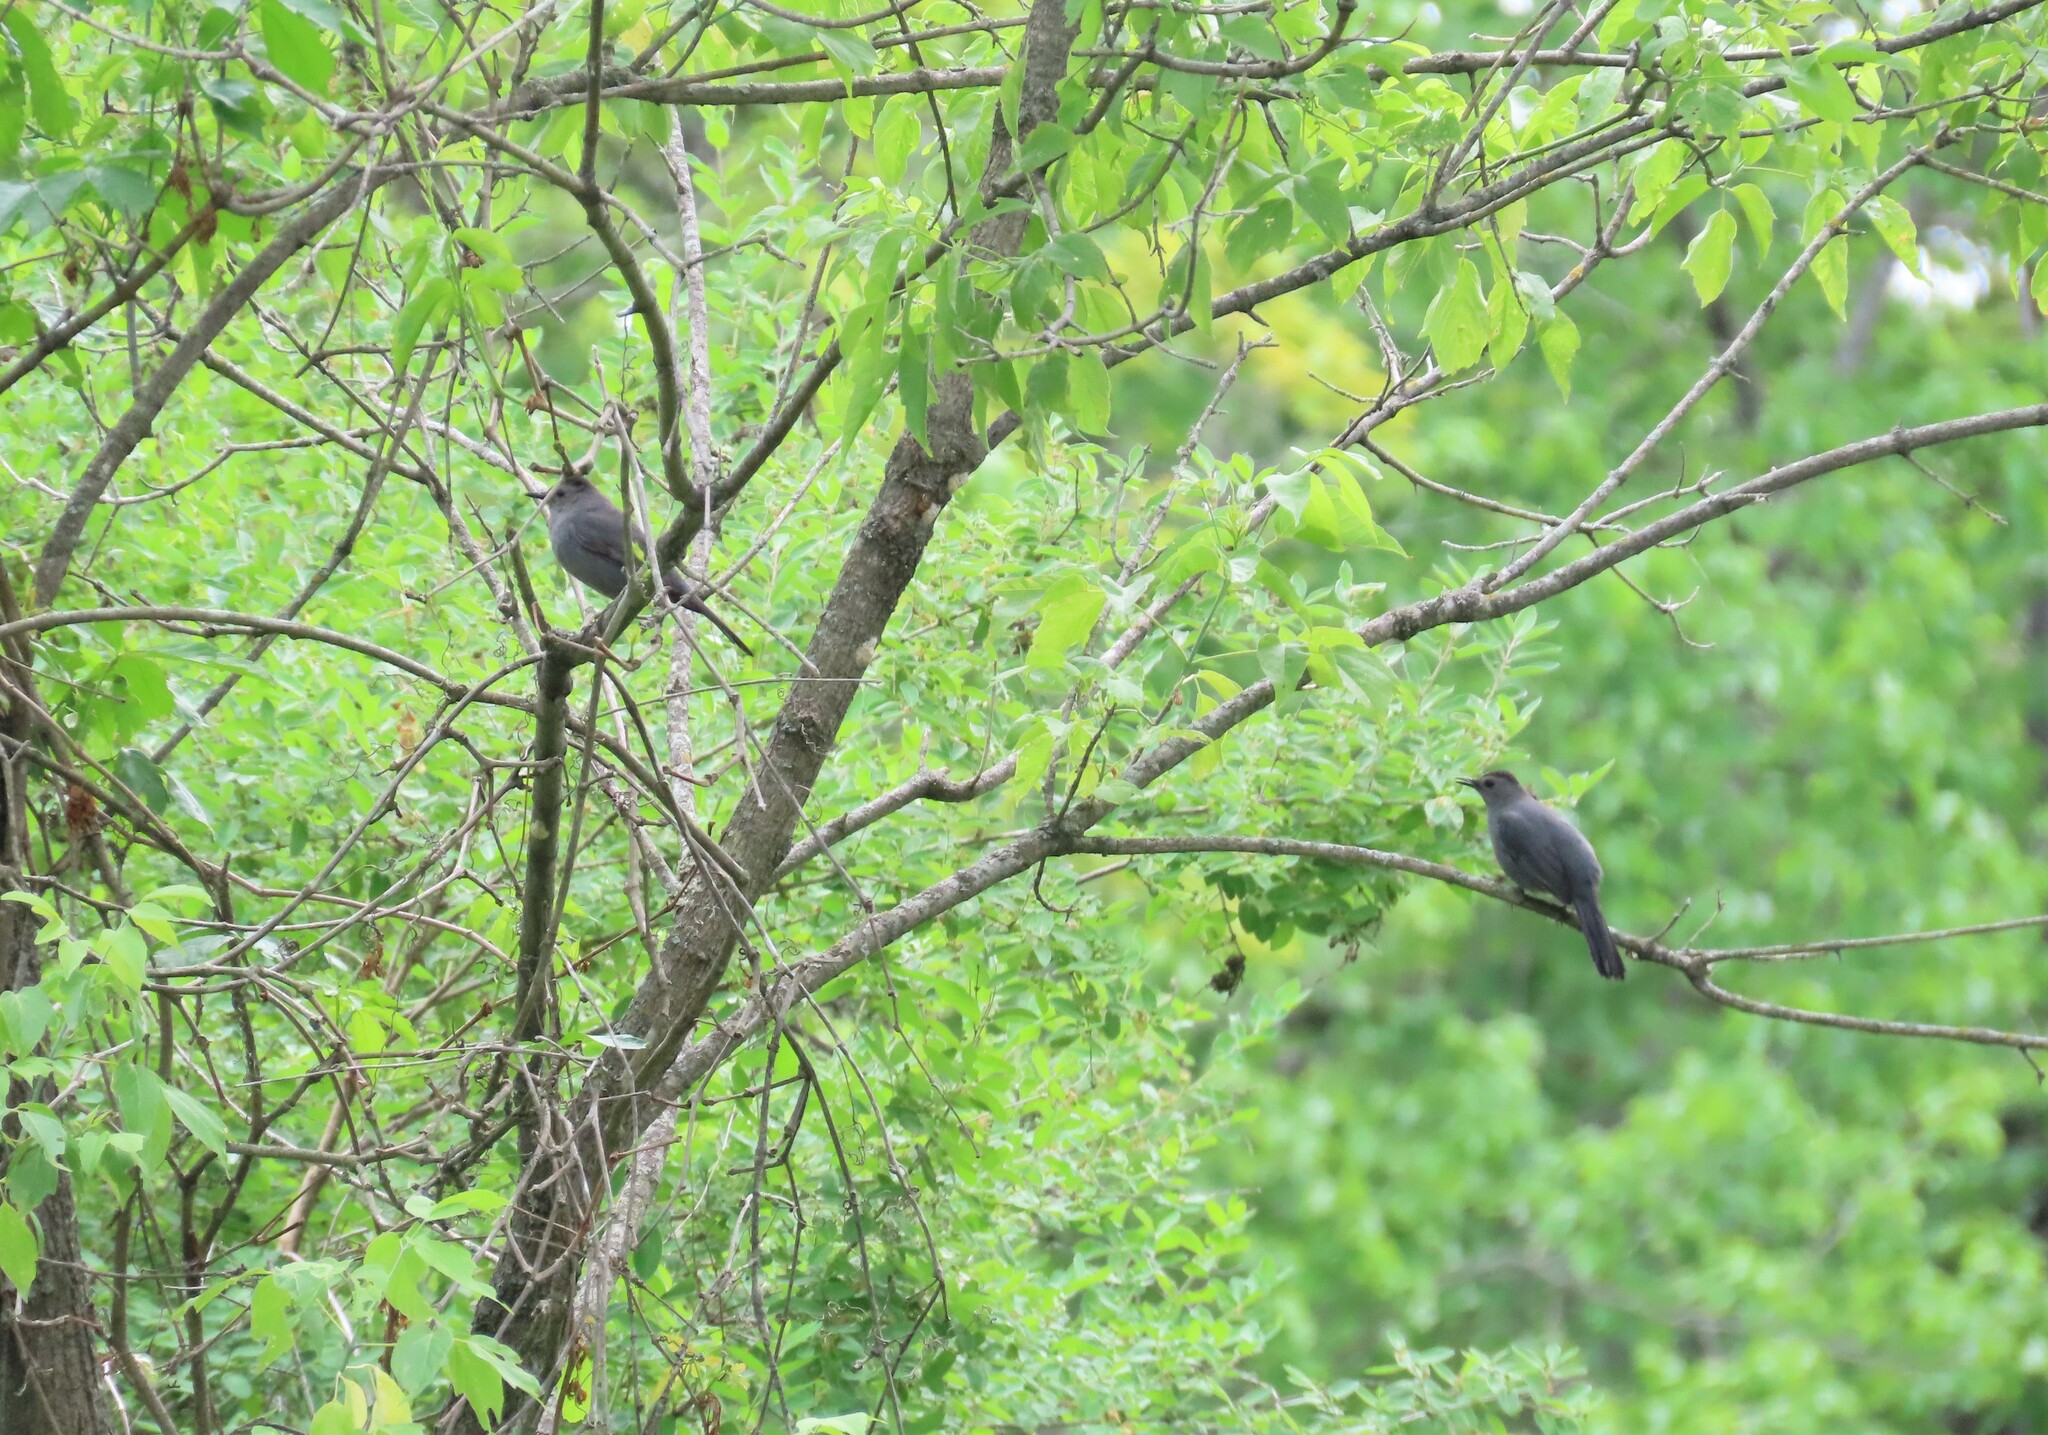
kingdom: Animalia
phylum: Chordata
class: Aves
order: Passeriformes
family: Mimidae
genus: Dumetella
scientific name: Dumetella carolinensis
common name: Gray catbird
